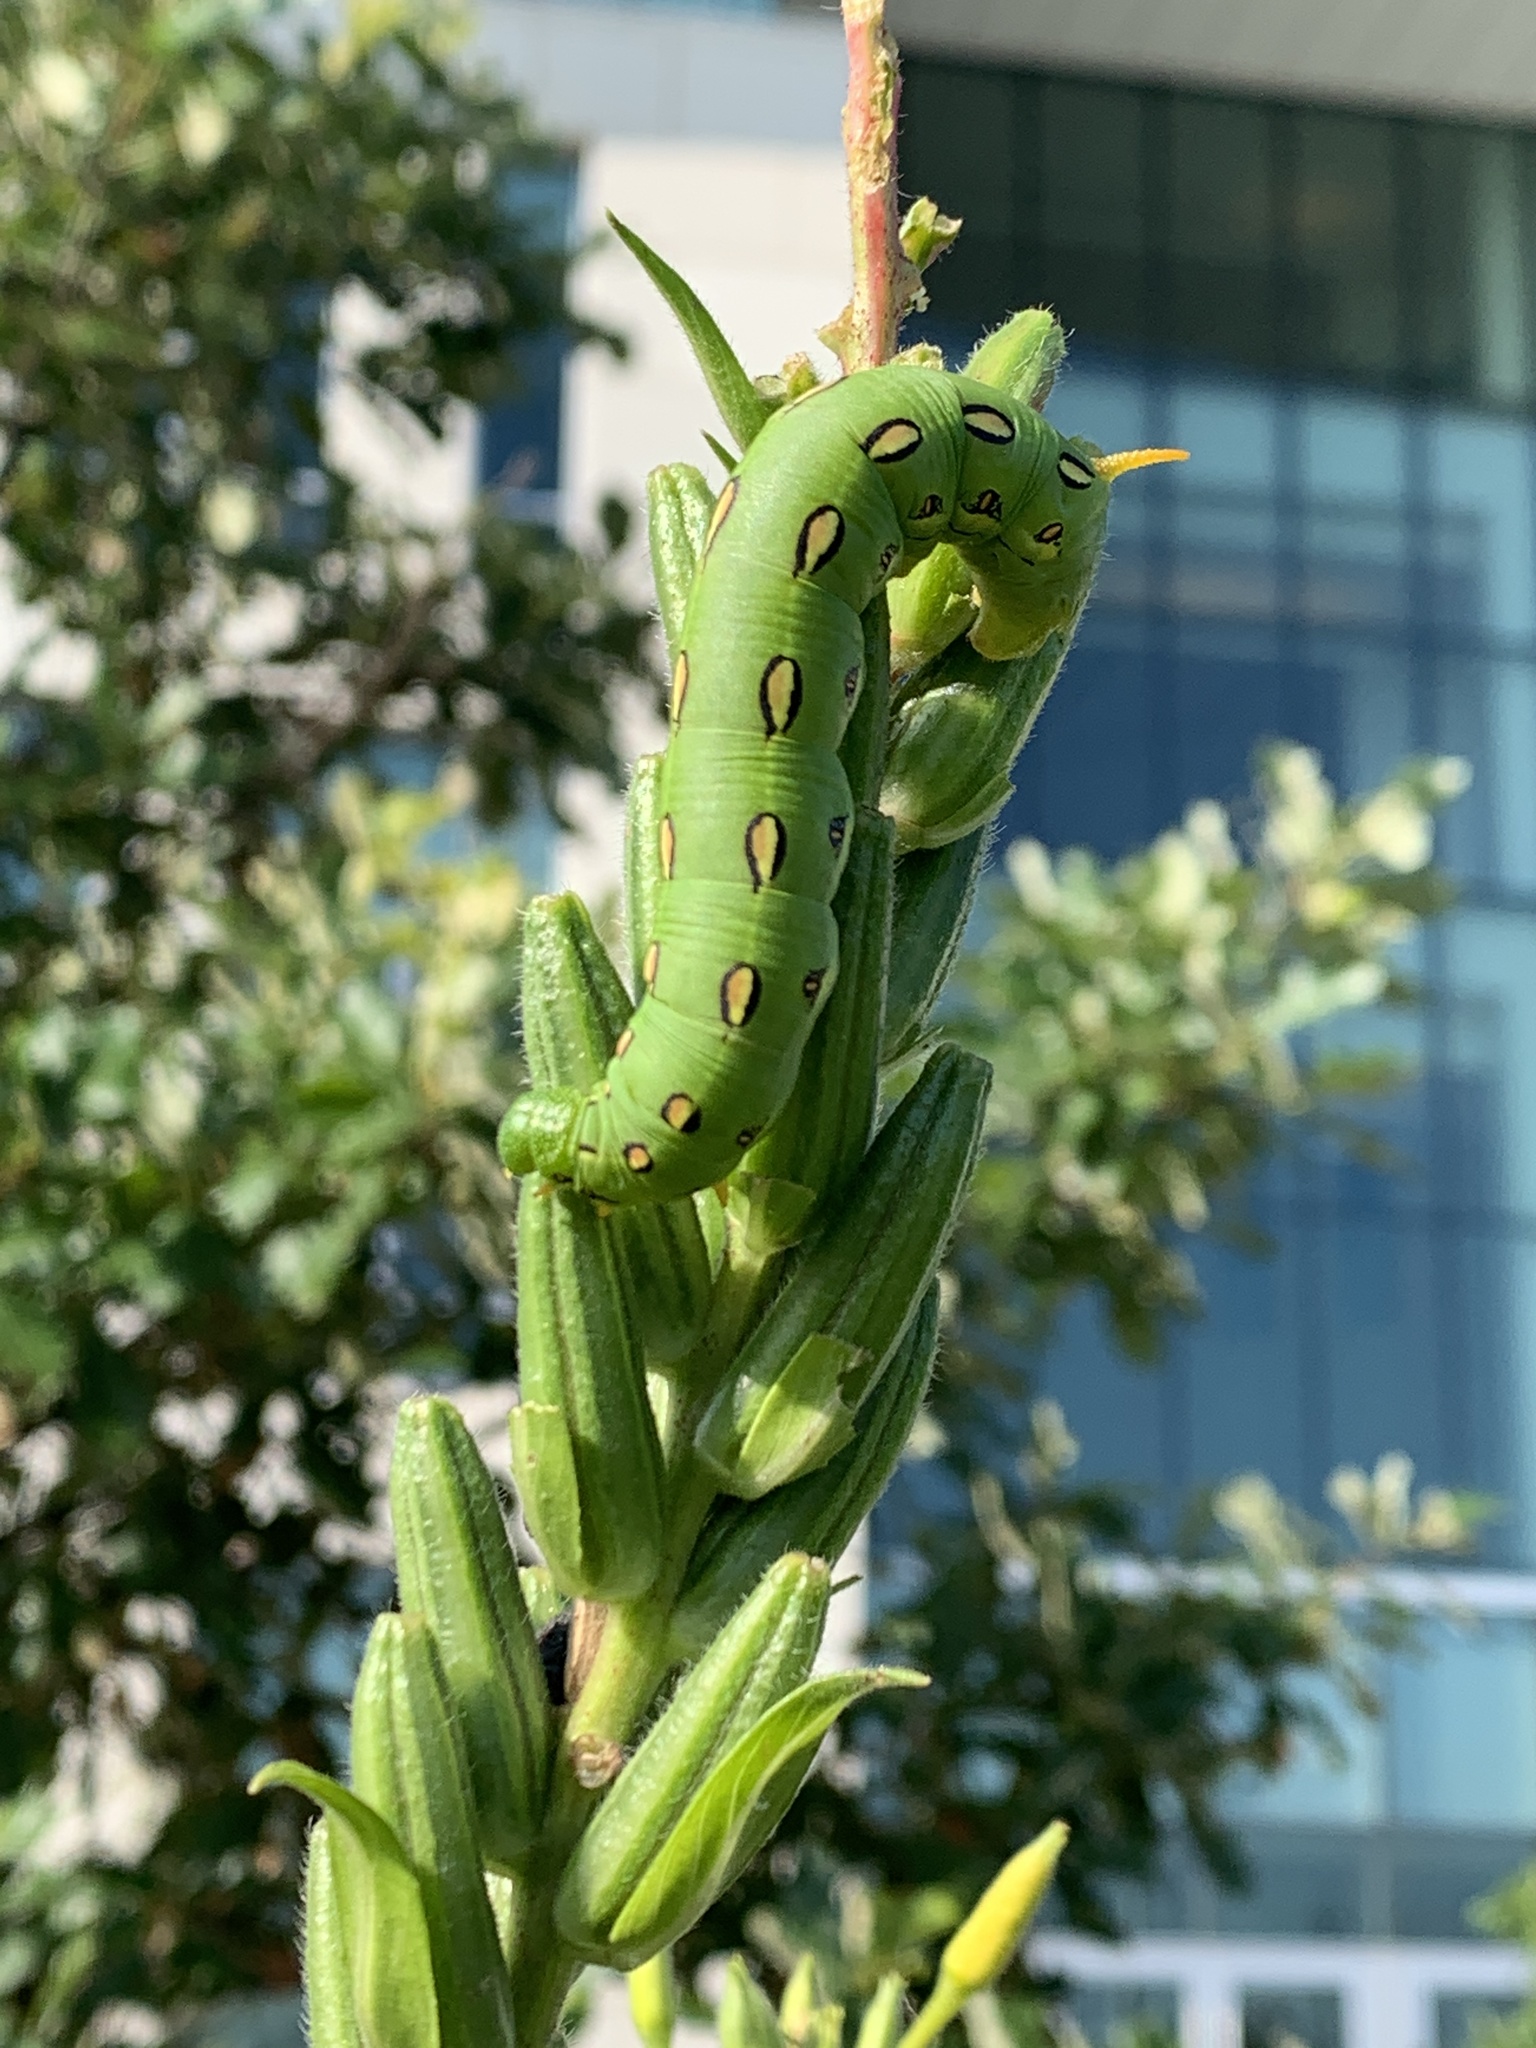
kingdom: Animalia
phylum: Arthropoda
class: Insecta
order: Lepidoptera
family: Sphingidae
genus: Hyles
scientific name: Hyles lineata
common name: White-lined sphinx
